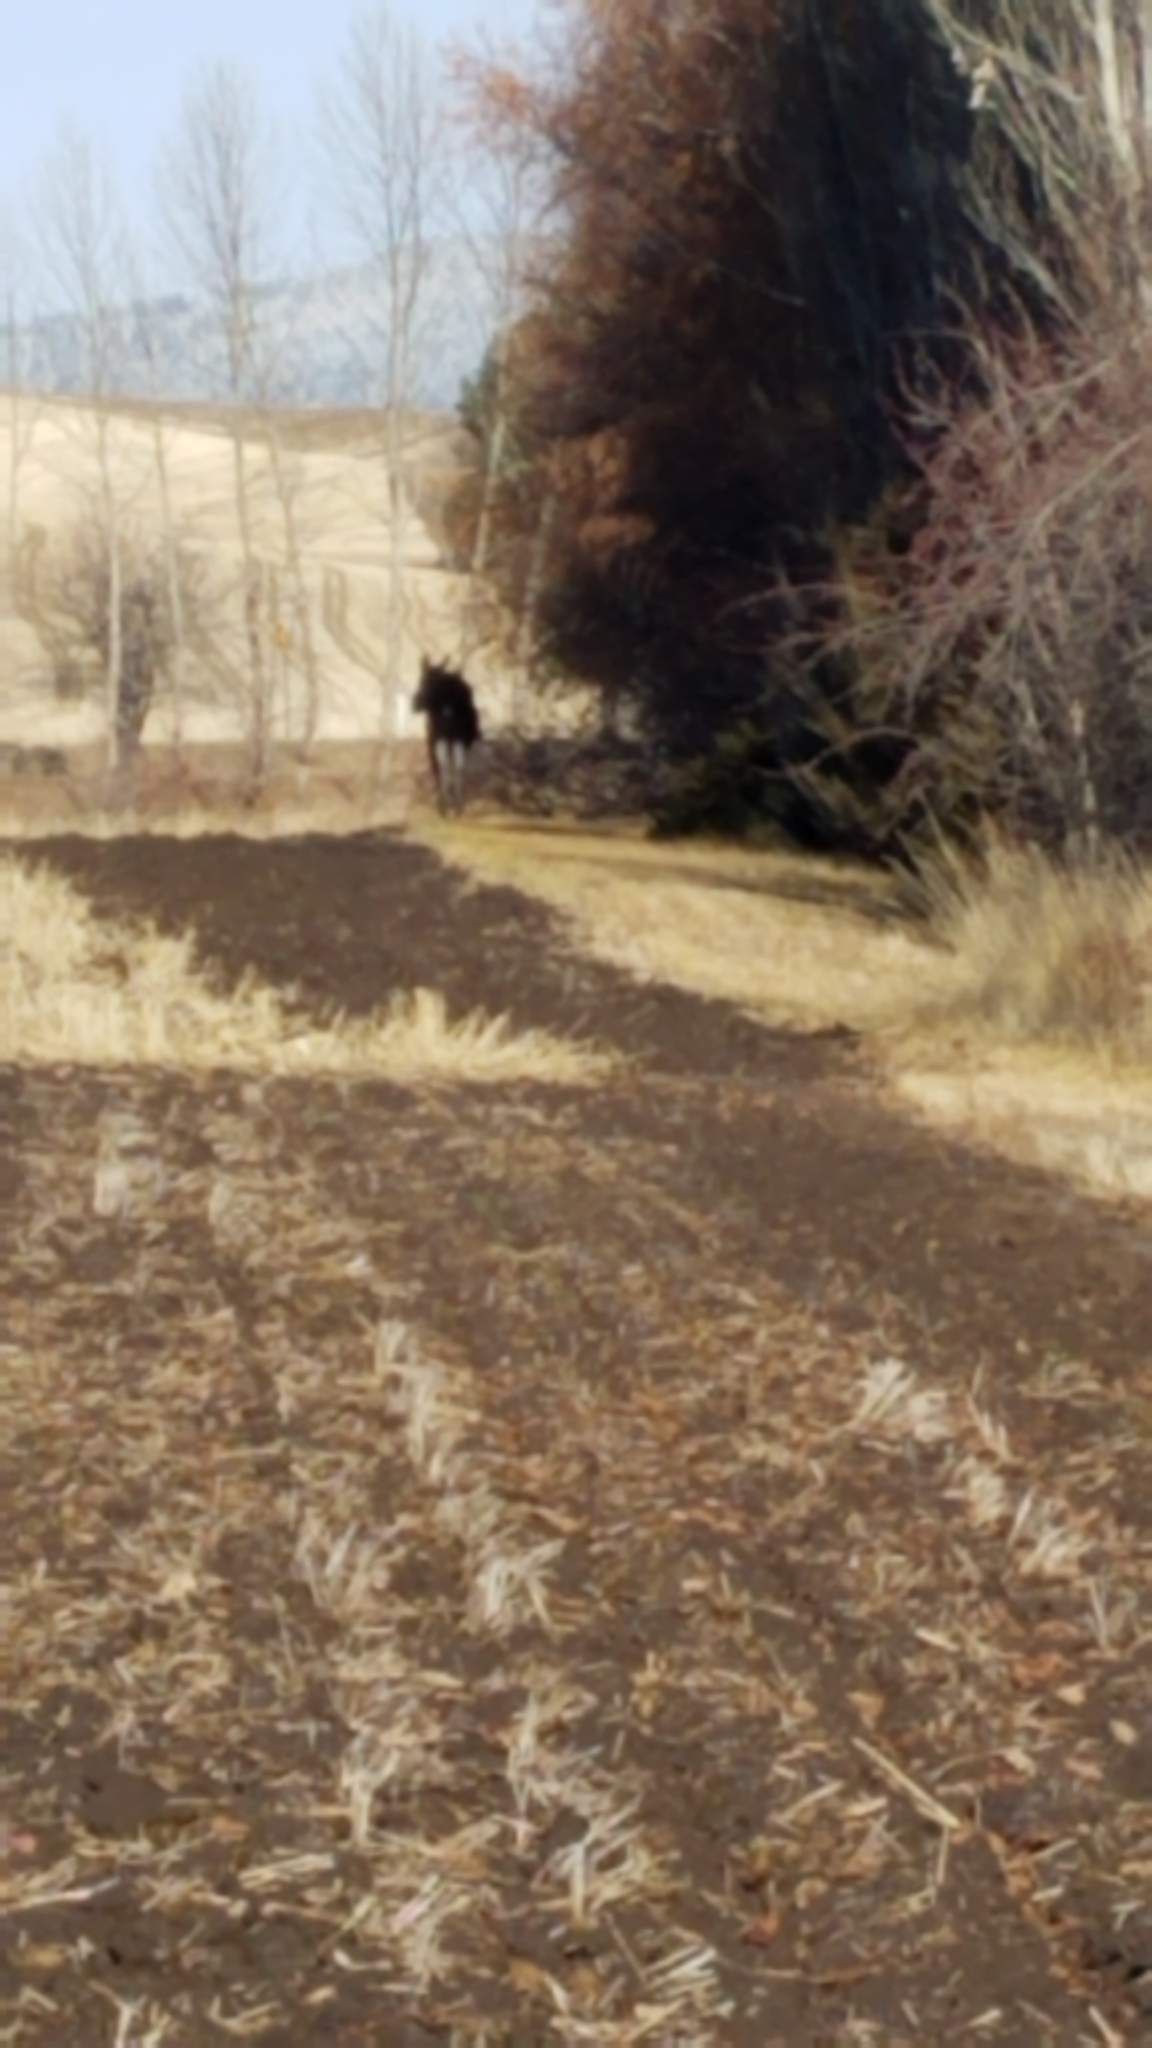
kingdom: Animalia
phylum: Chordata
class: Mammalia
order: Artiodactyla
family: Cervidae
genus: Alces
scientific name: Alces alces
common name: Moose
